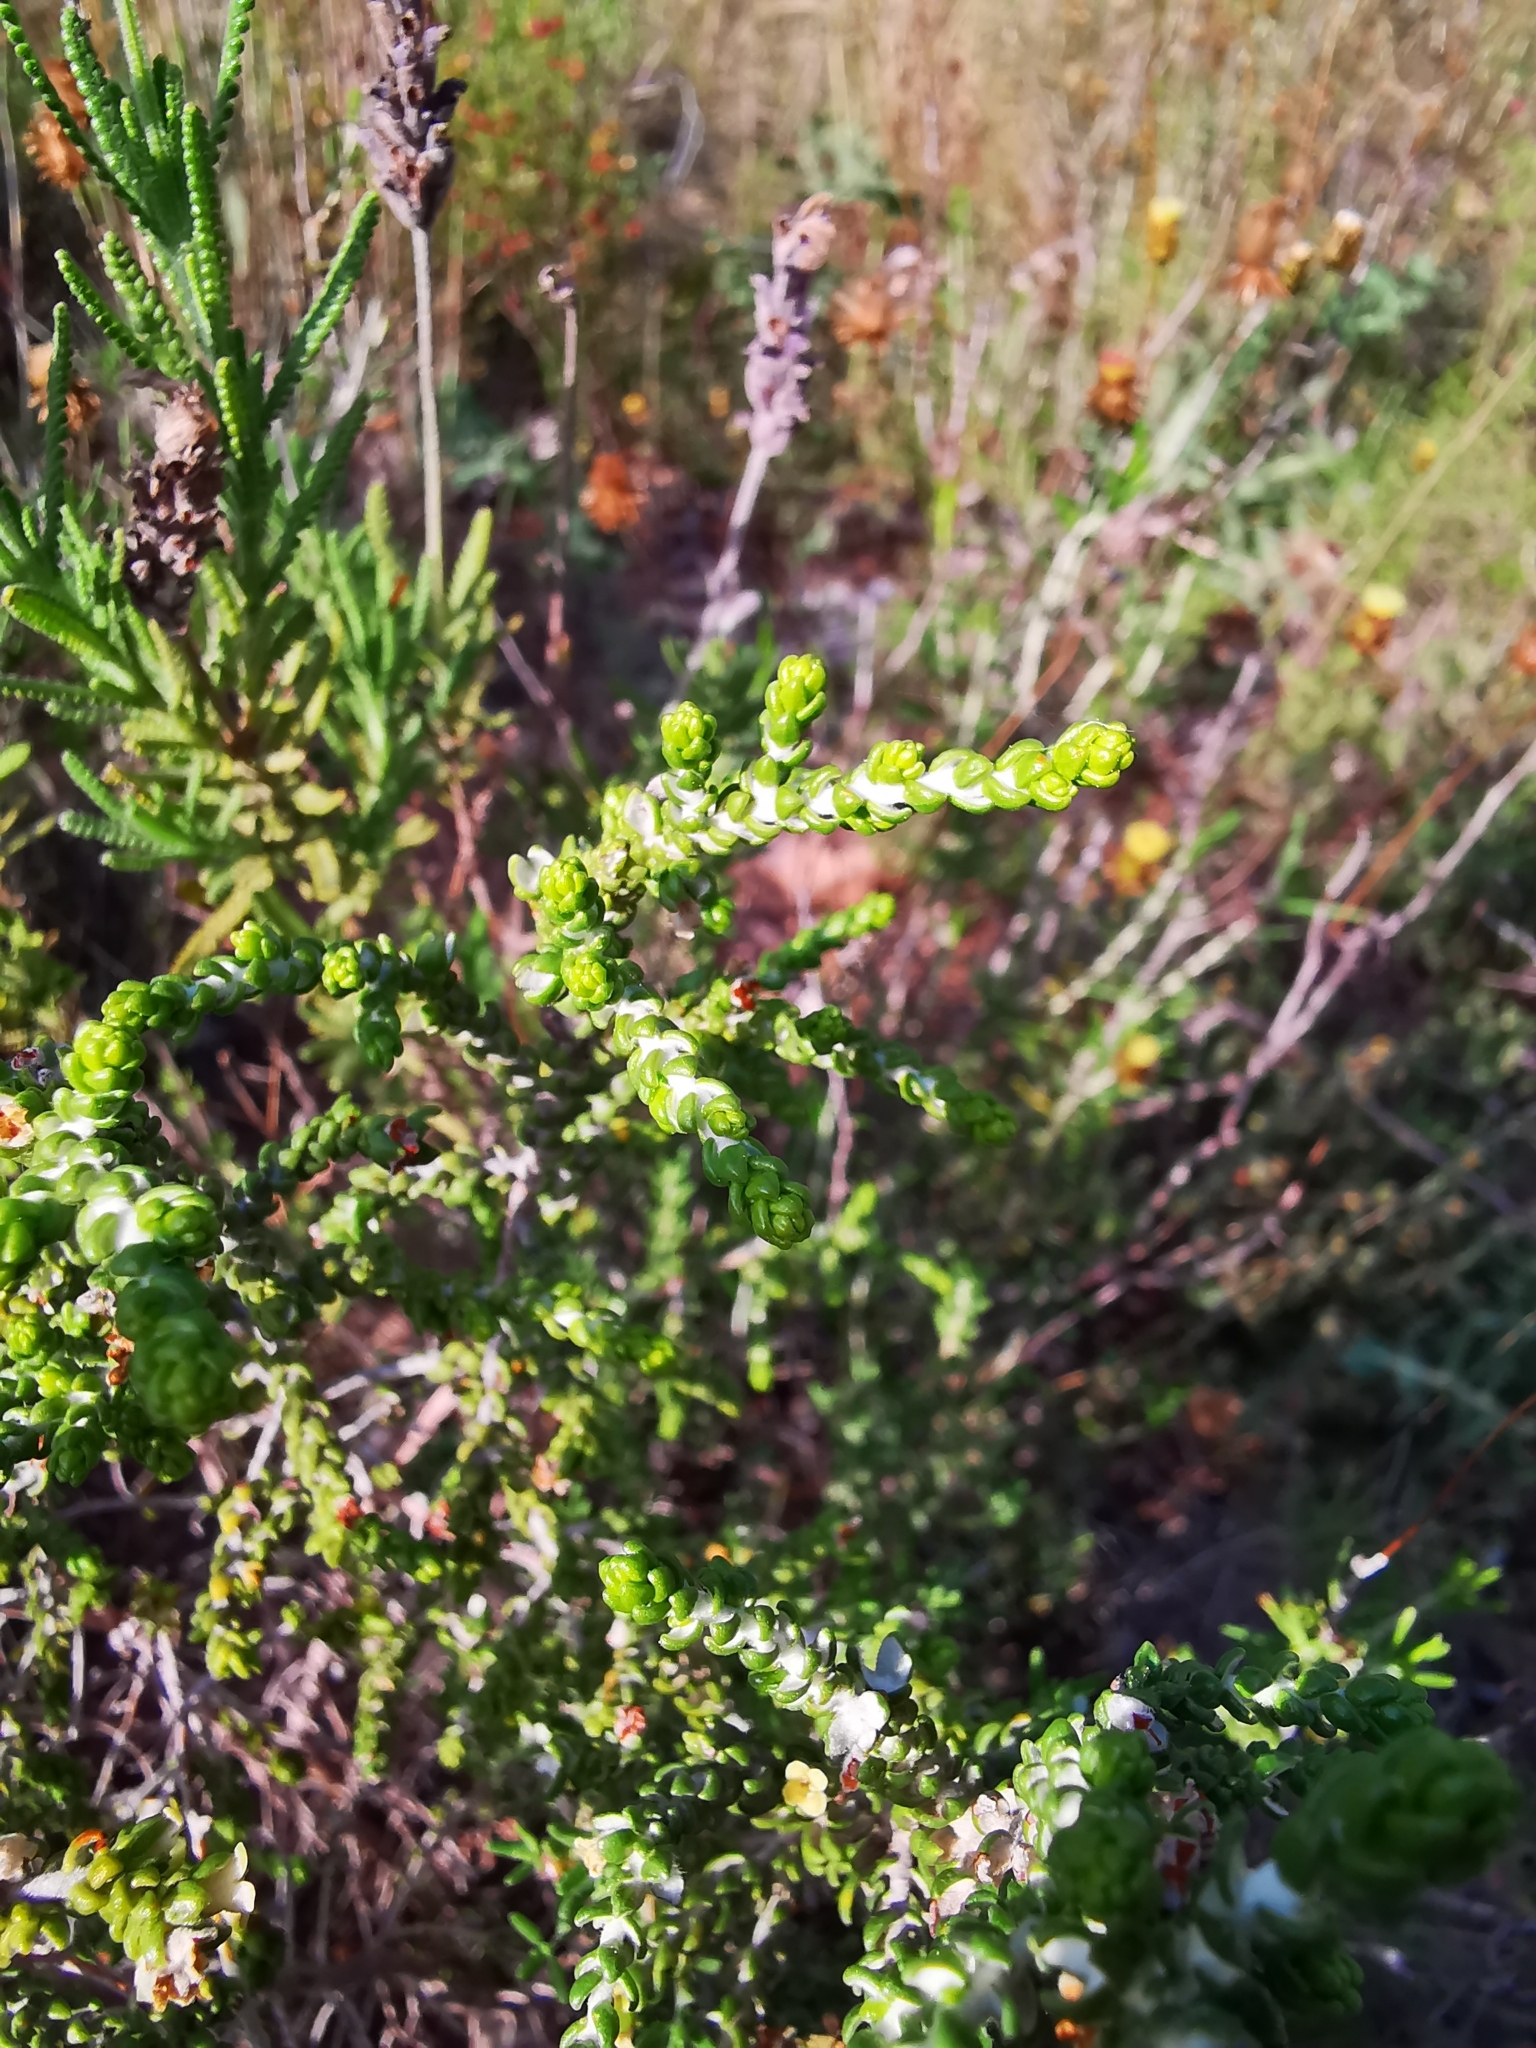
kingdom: Plantae
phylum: Tracheophyta
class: Magnoliopsida
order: Malvales
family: Thymelaeaceae
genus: Thymelaea
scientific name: Thymelaea hirsuta
